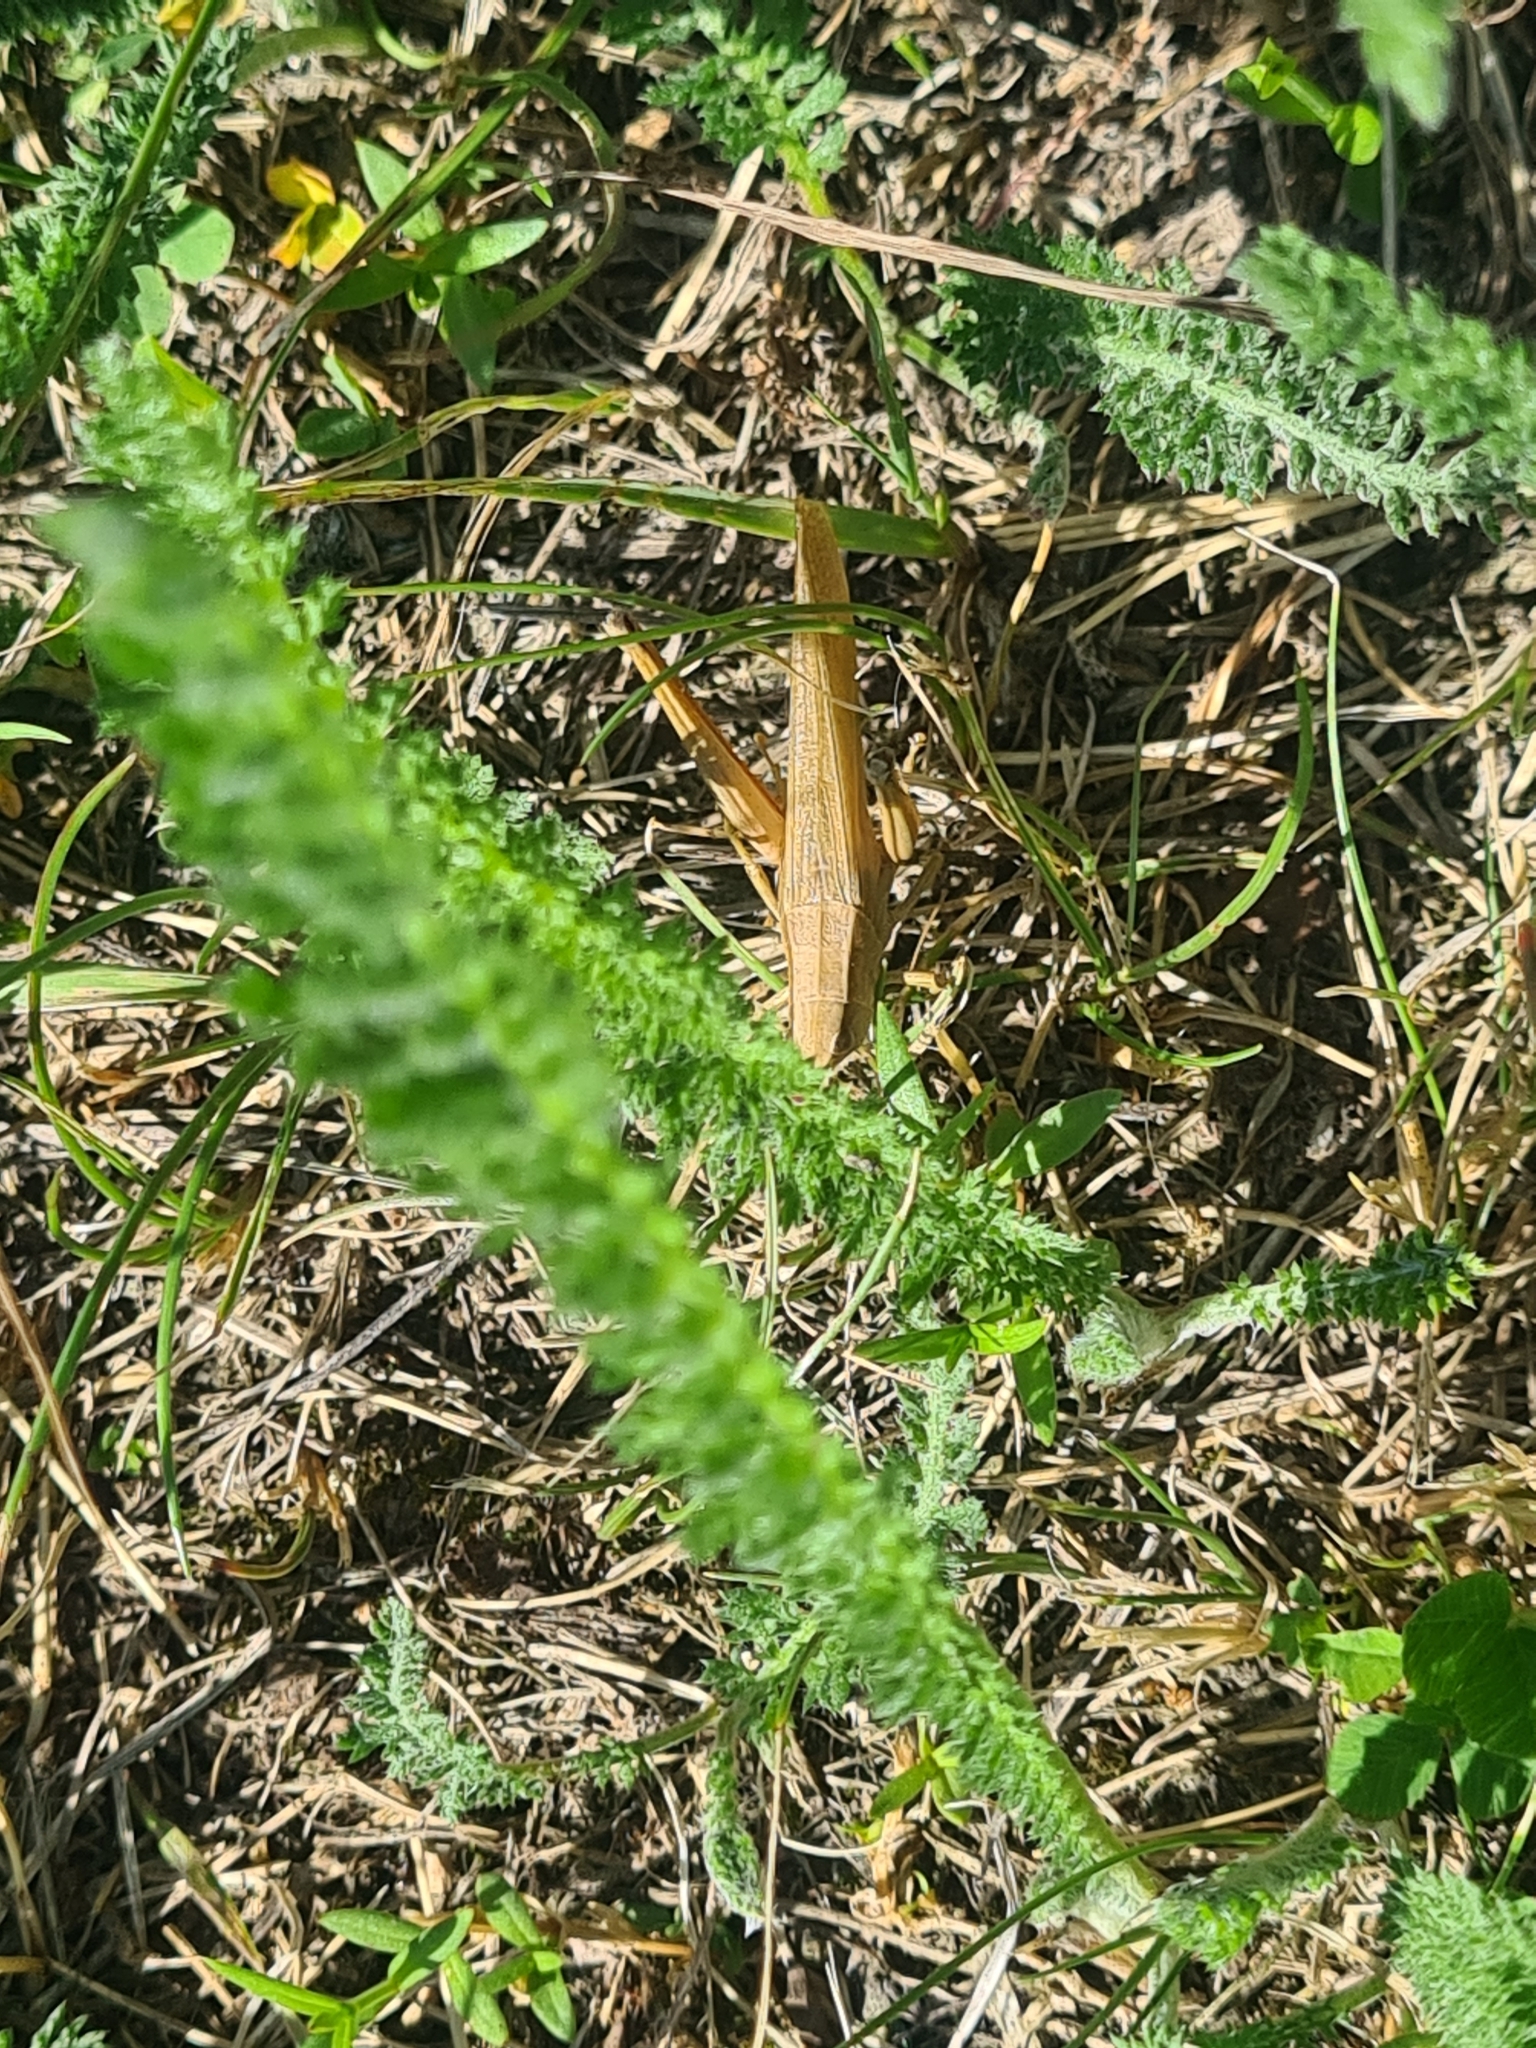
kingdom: Animalia
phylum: Arthropoda
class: Insecta
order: Orthoptera
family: Acrididae
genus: Chrysochraon
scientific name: Chrysochraon dispar
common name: Large gold grasshopper
